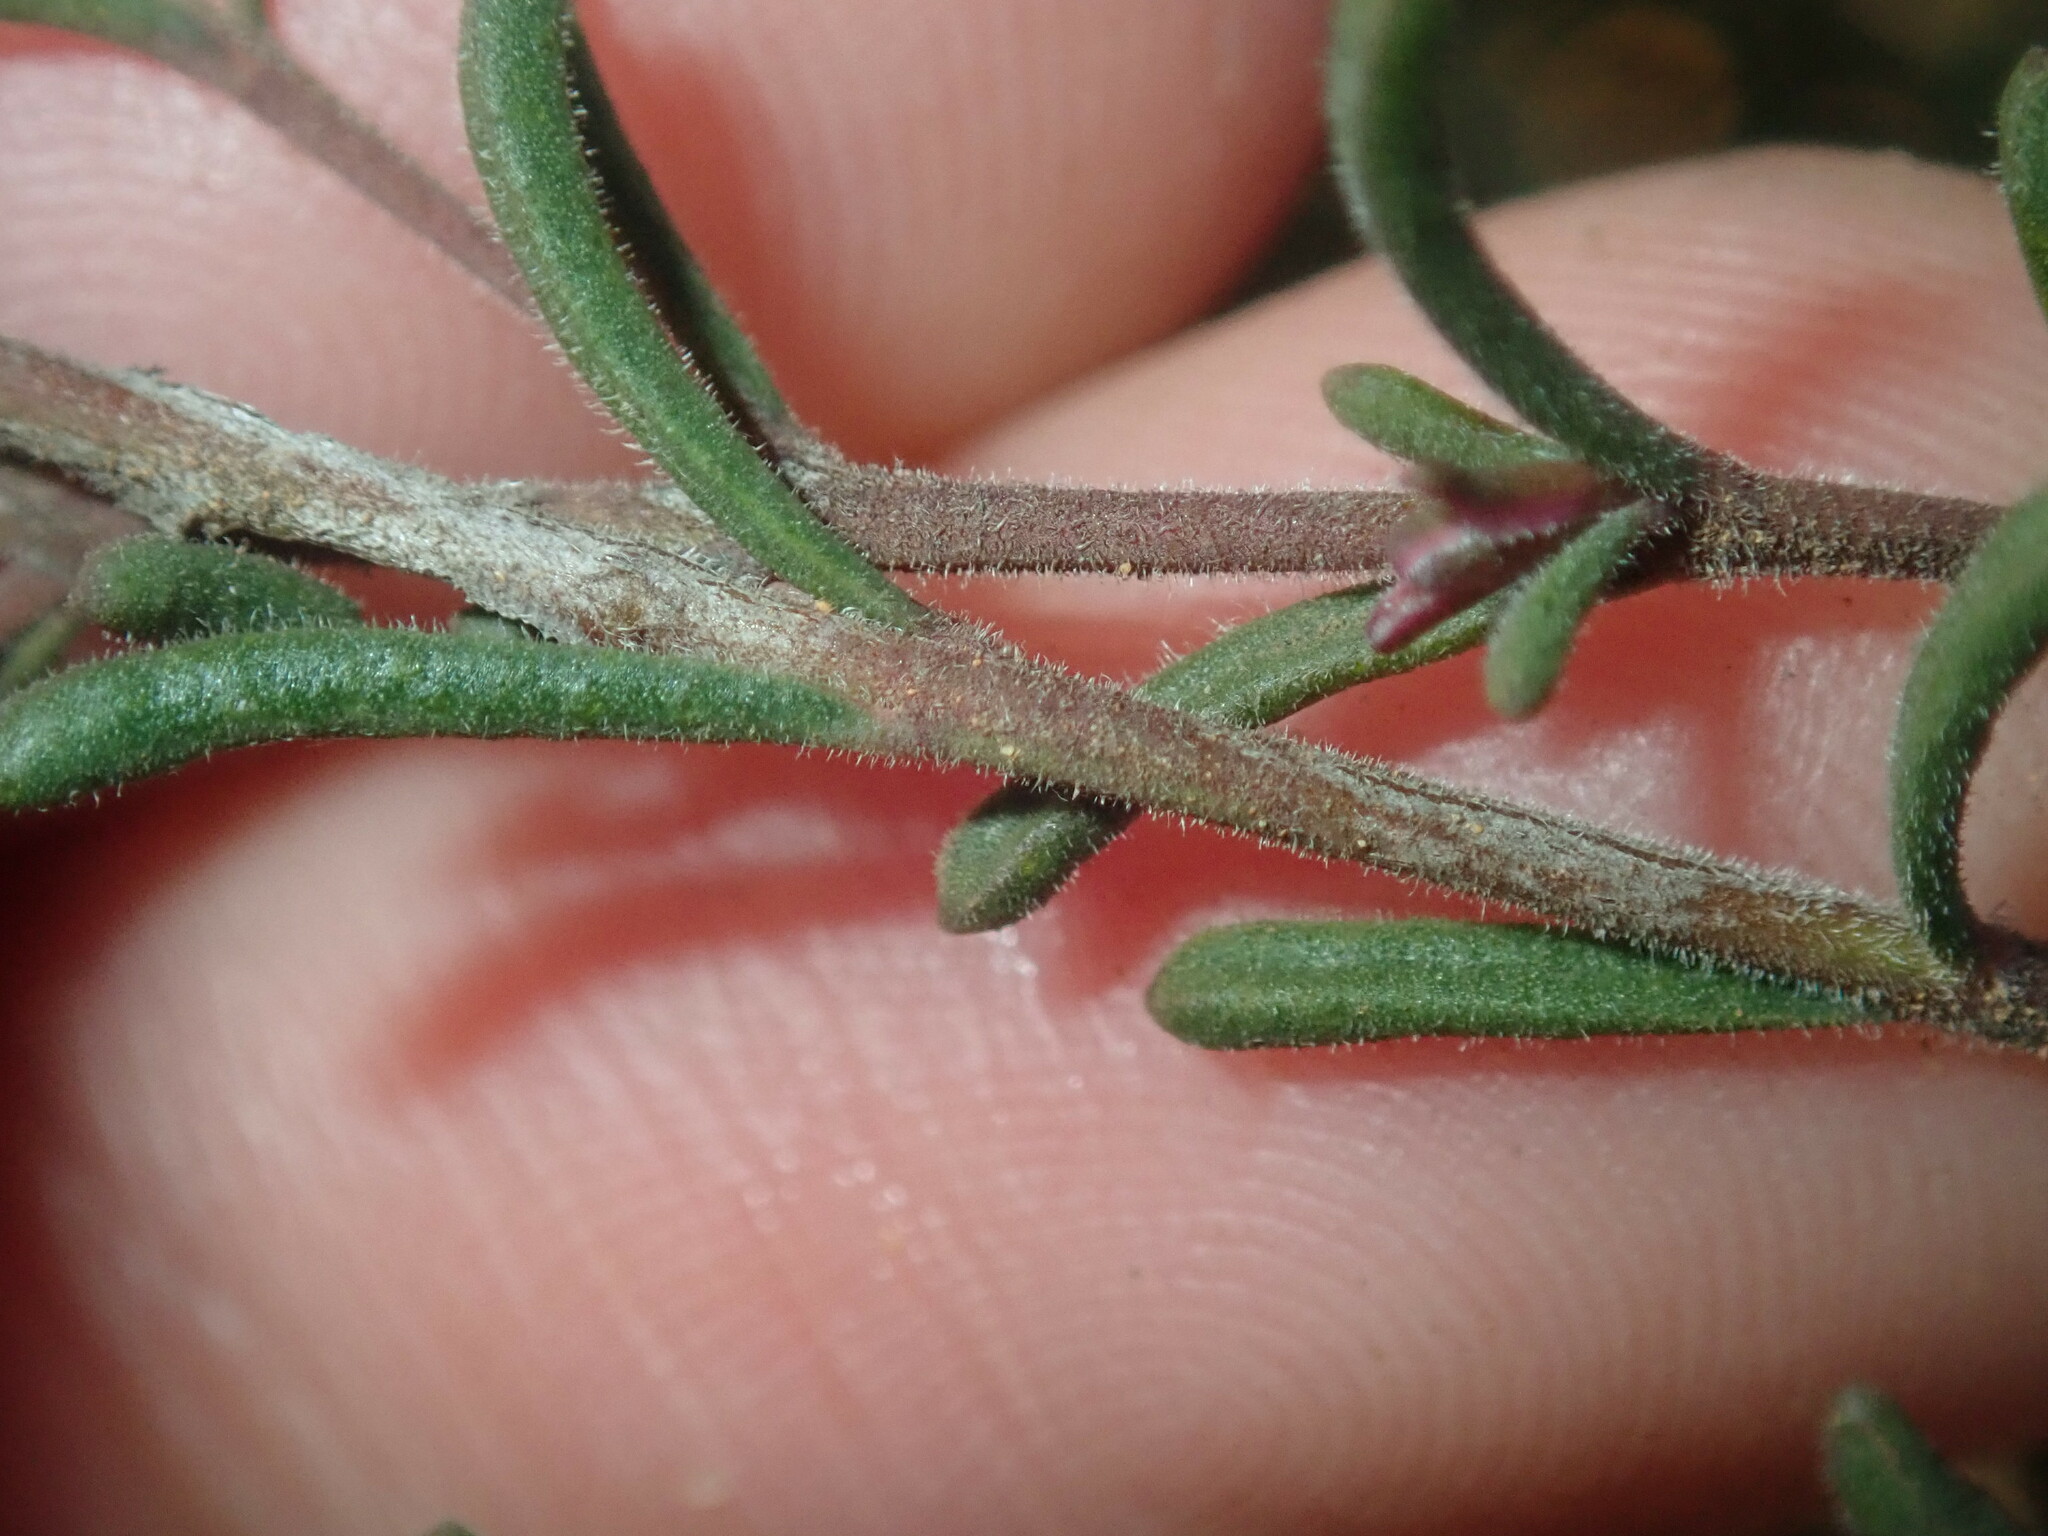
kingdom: Plantae
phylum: Tracheophyta
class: Magnoliopsida
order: Sapindales
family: Rutaceae
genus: Boronia
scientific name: Boronia capitata
